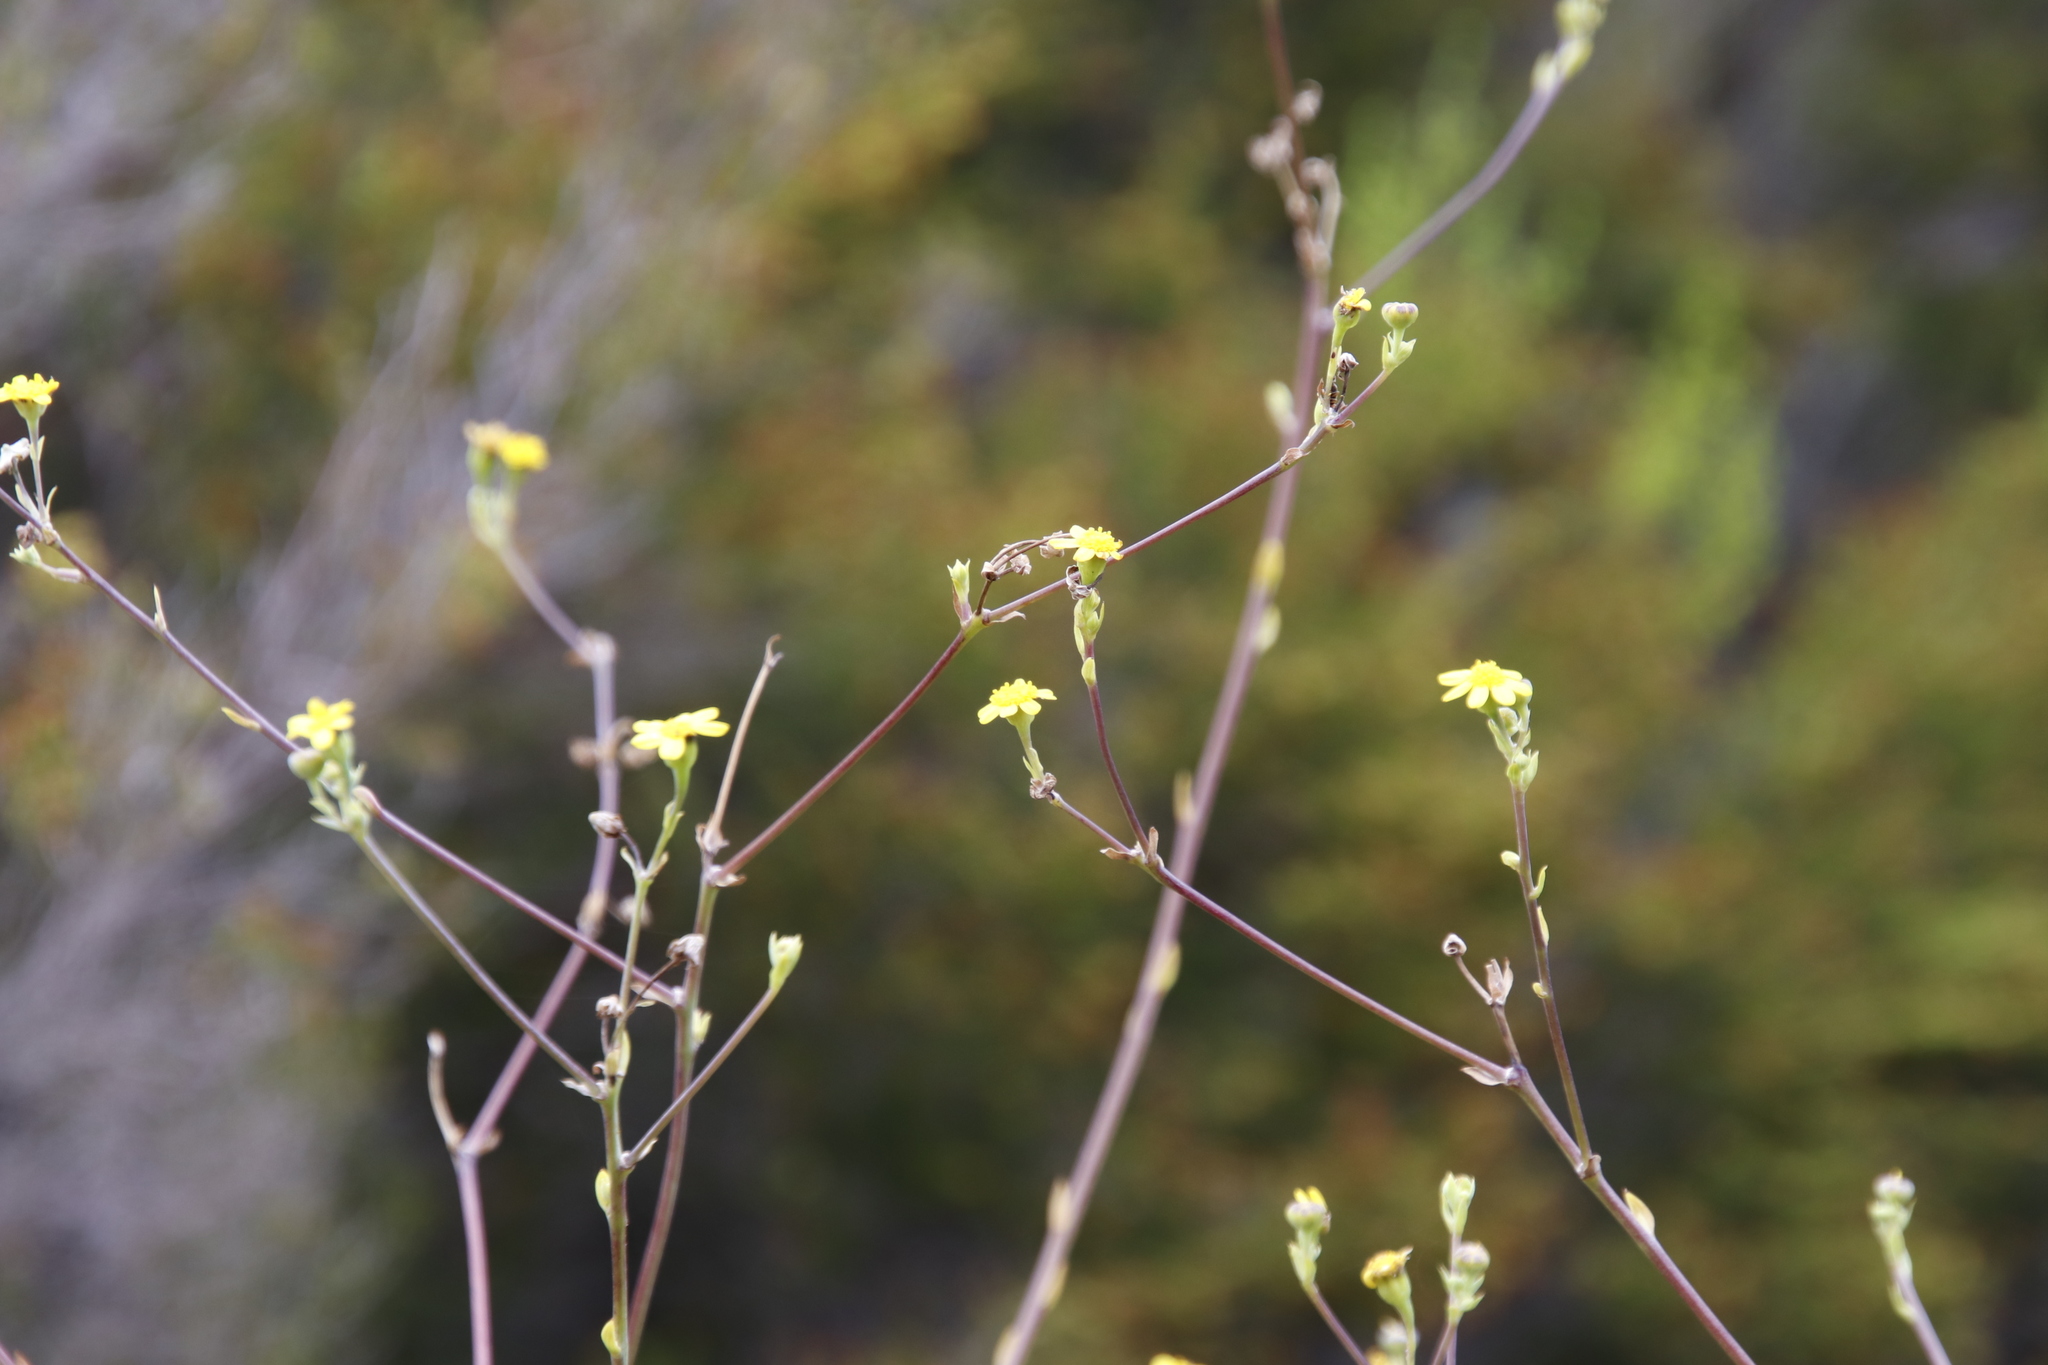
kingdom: Plantae
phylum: Tracheophyta
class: Magnoliopsida
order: Asterales
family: Asteraceae
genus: Othonna
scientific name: Othonna quinquedentata
